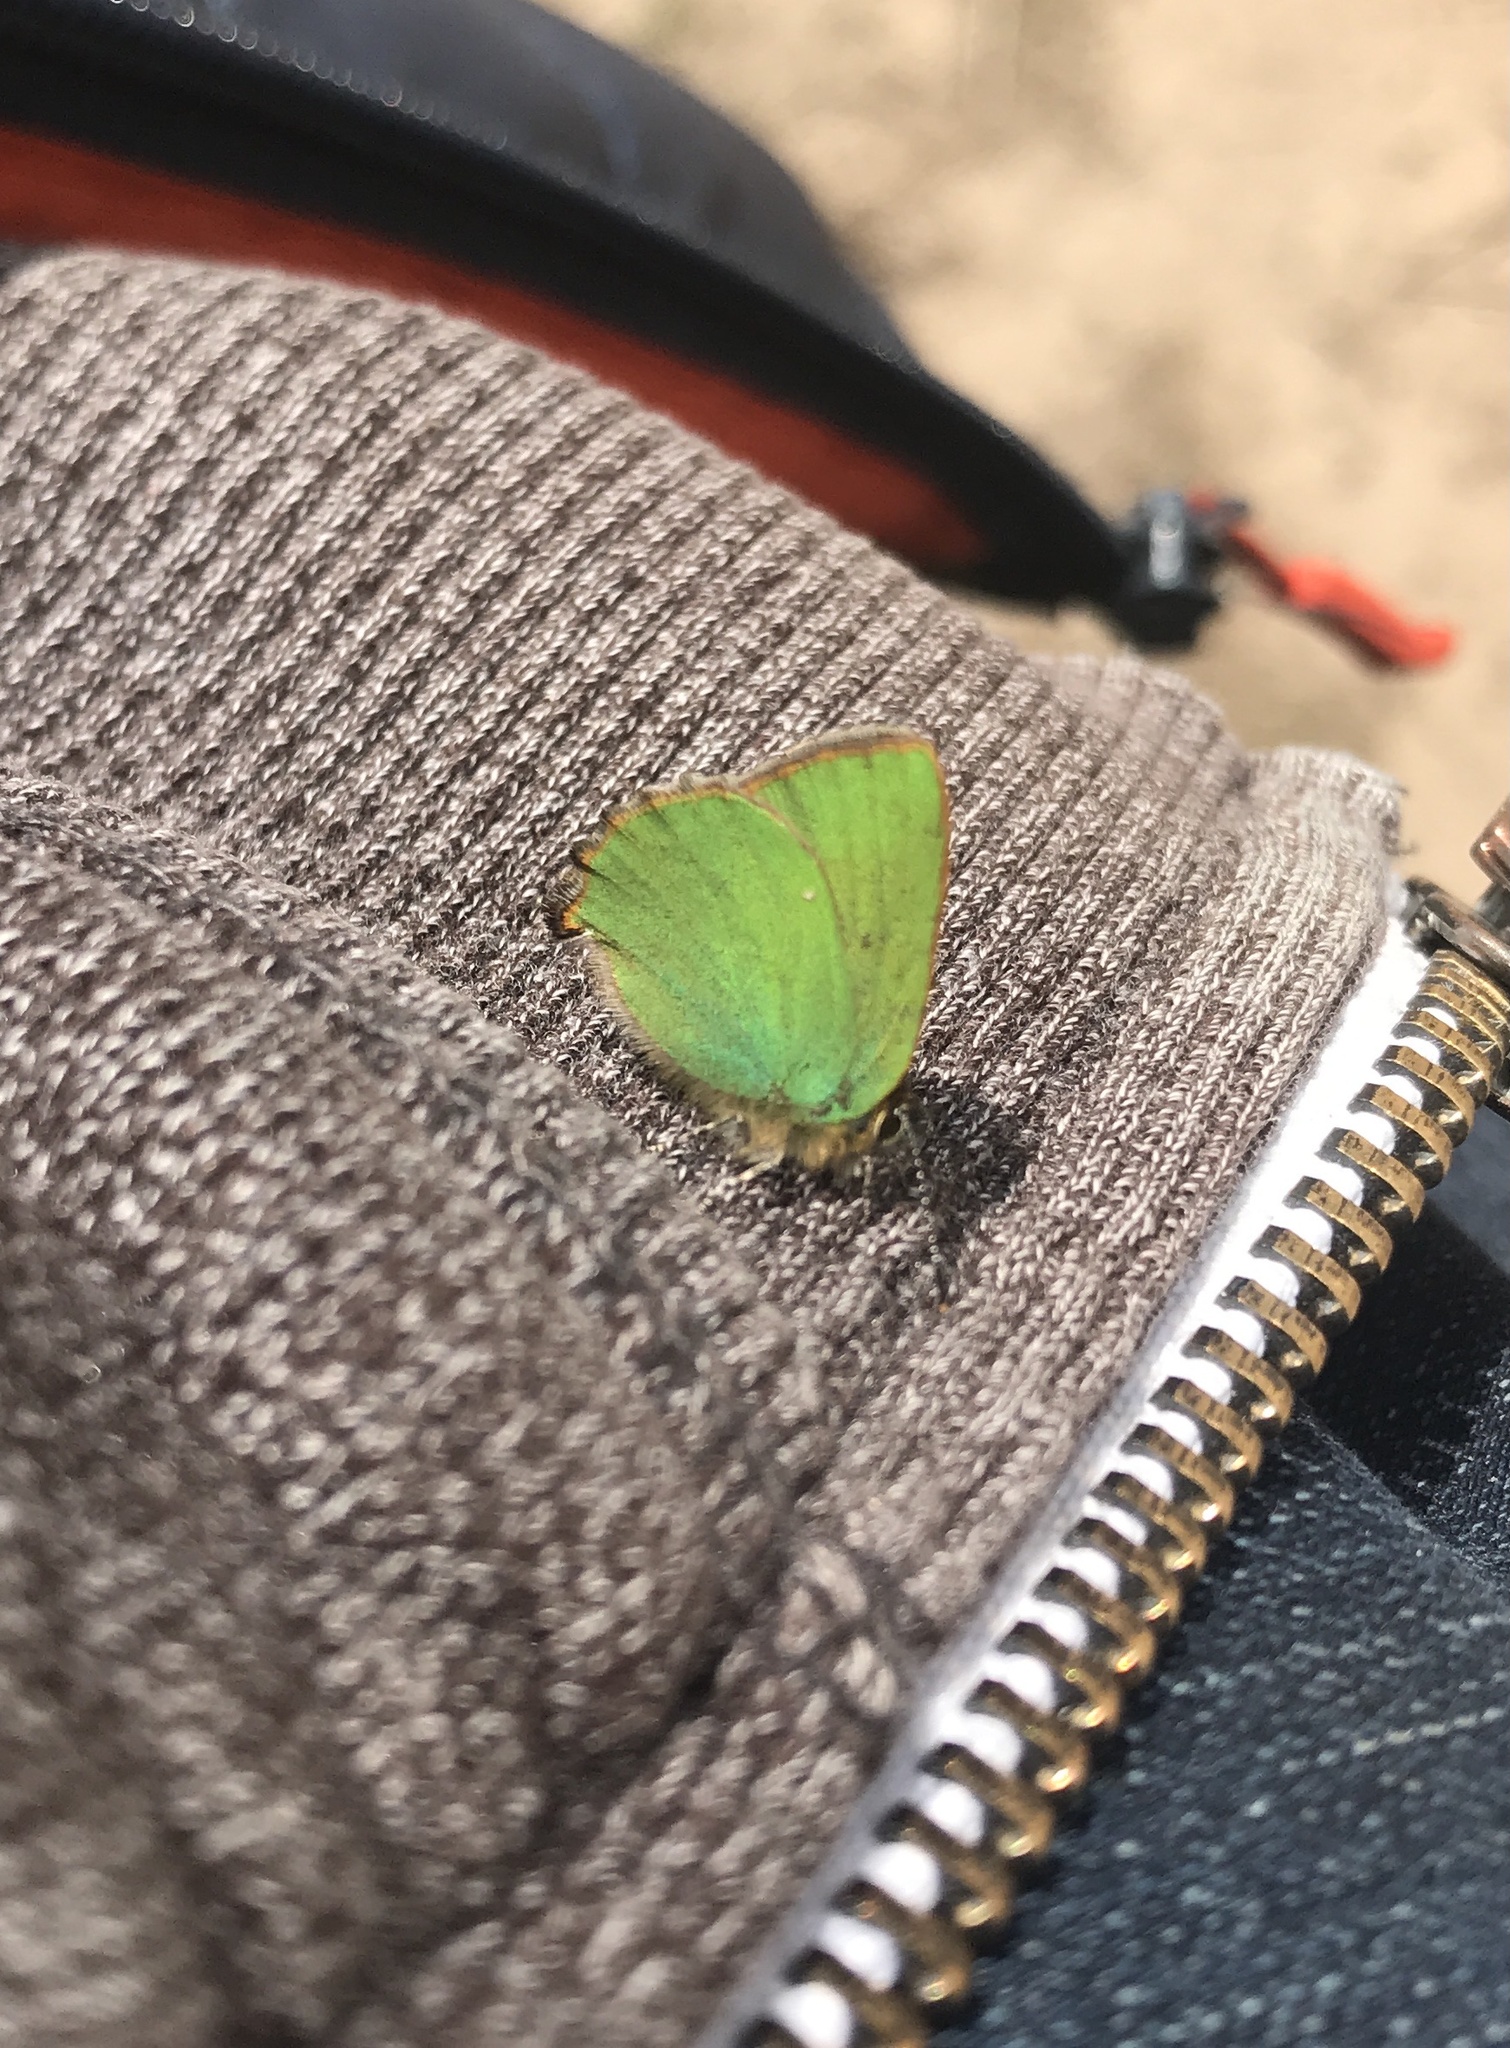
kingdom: Animalia
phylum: Arthropoda
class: Insecta
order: Lepidoptera
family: Lycaenidae
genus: Callophrys
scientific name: Callophrys rubi
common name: Green hairstreak
